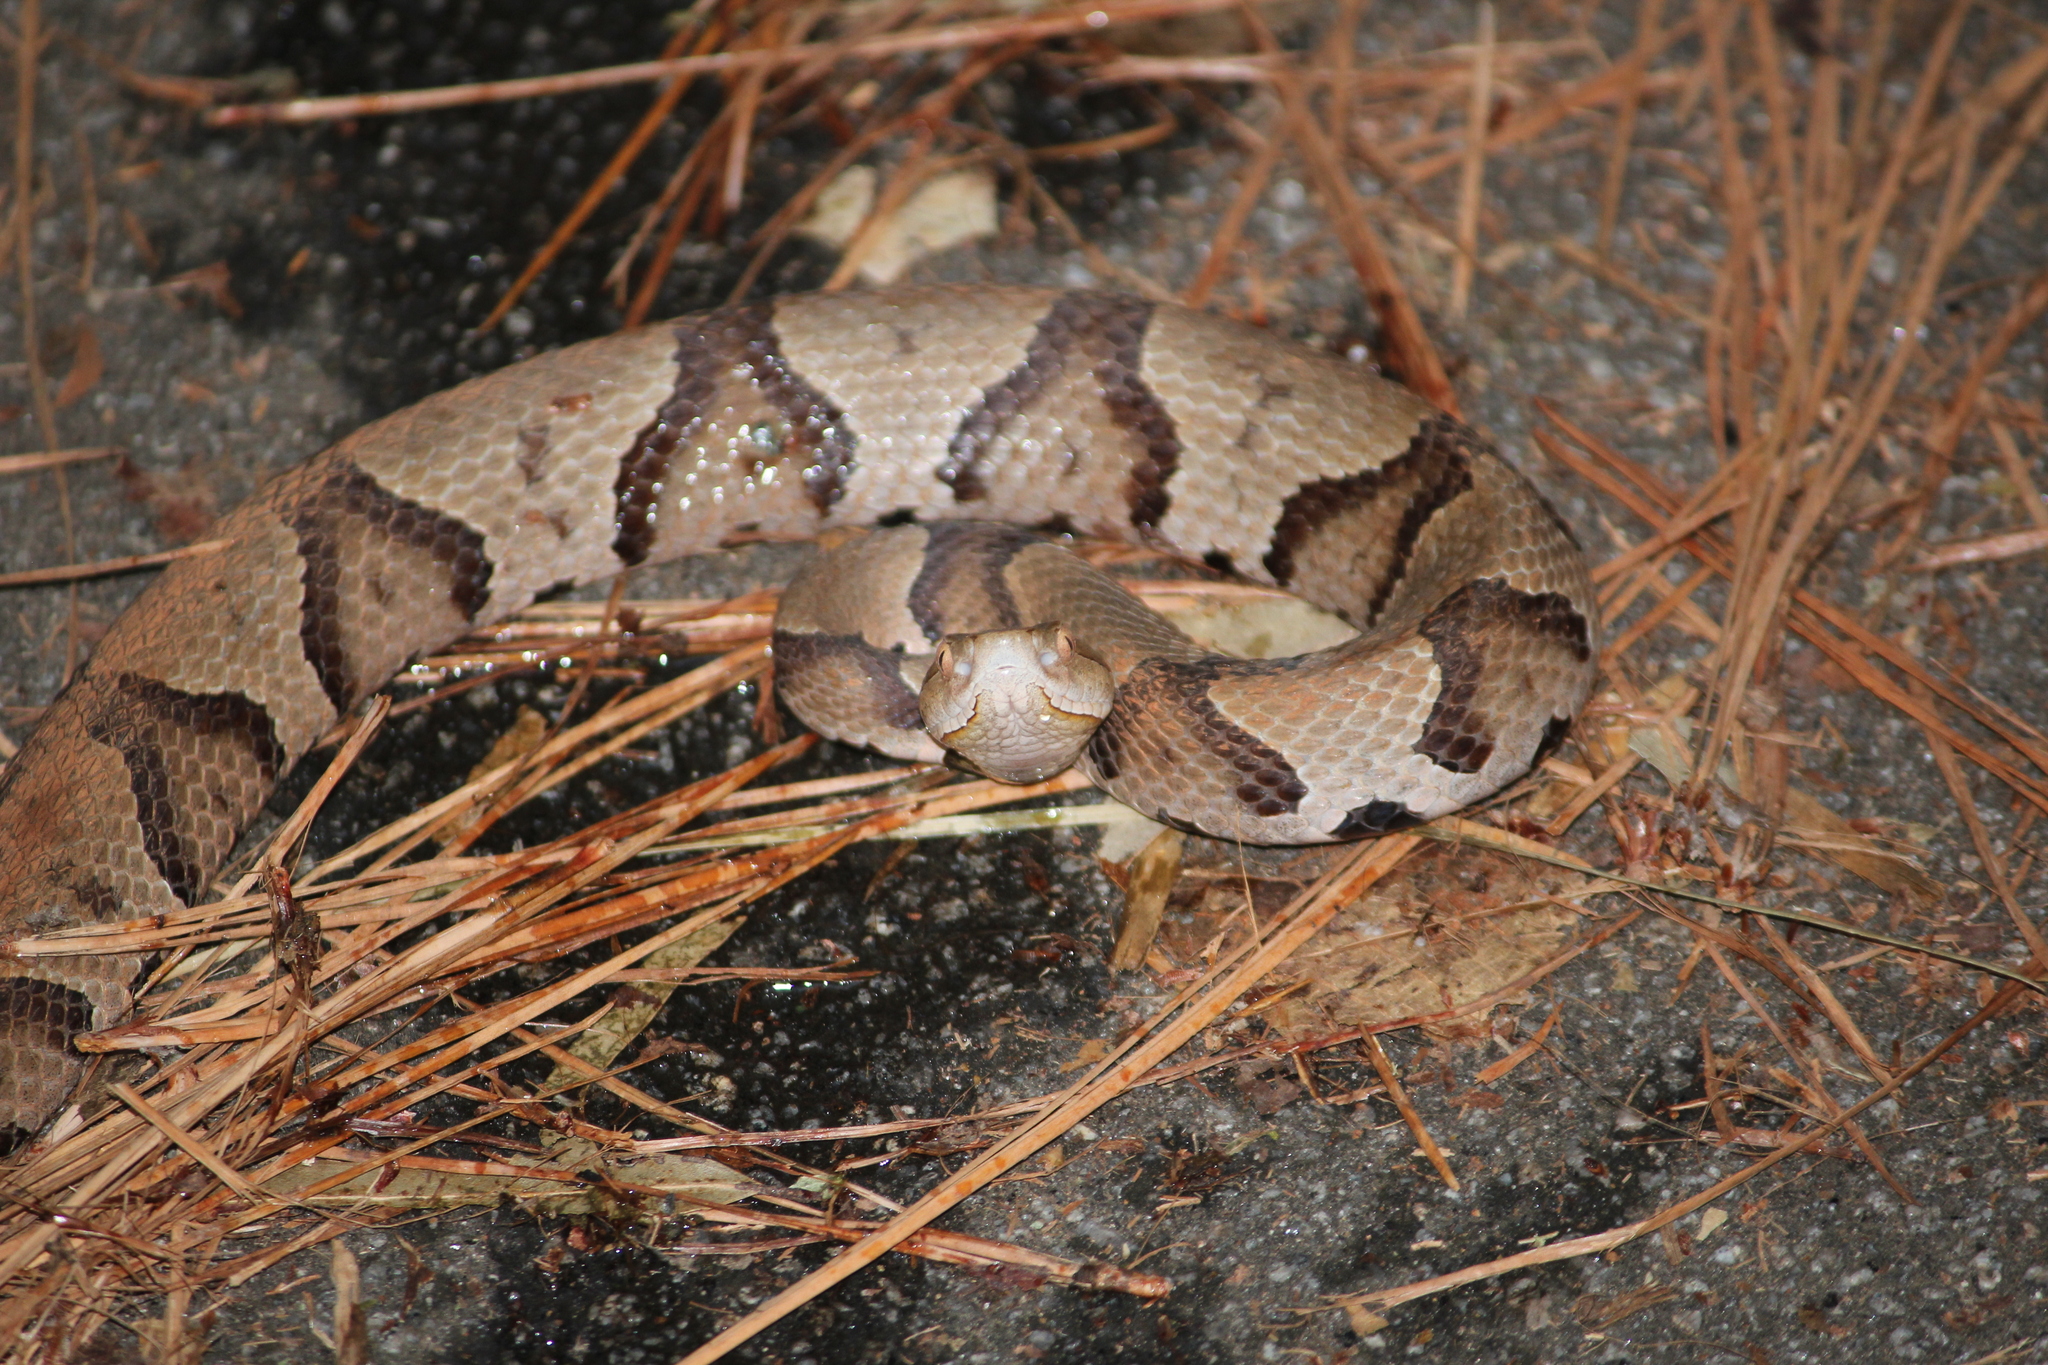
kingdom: Animalia
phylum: Chordata
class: Squamata
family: Viperidae
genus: Agkistrodon
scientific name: Agkistrodon contortrix
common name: Northern copperhead
